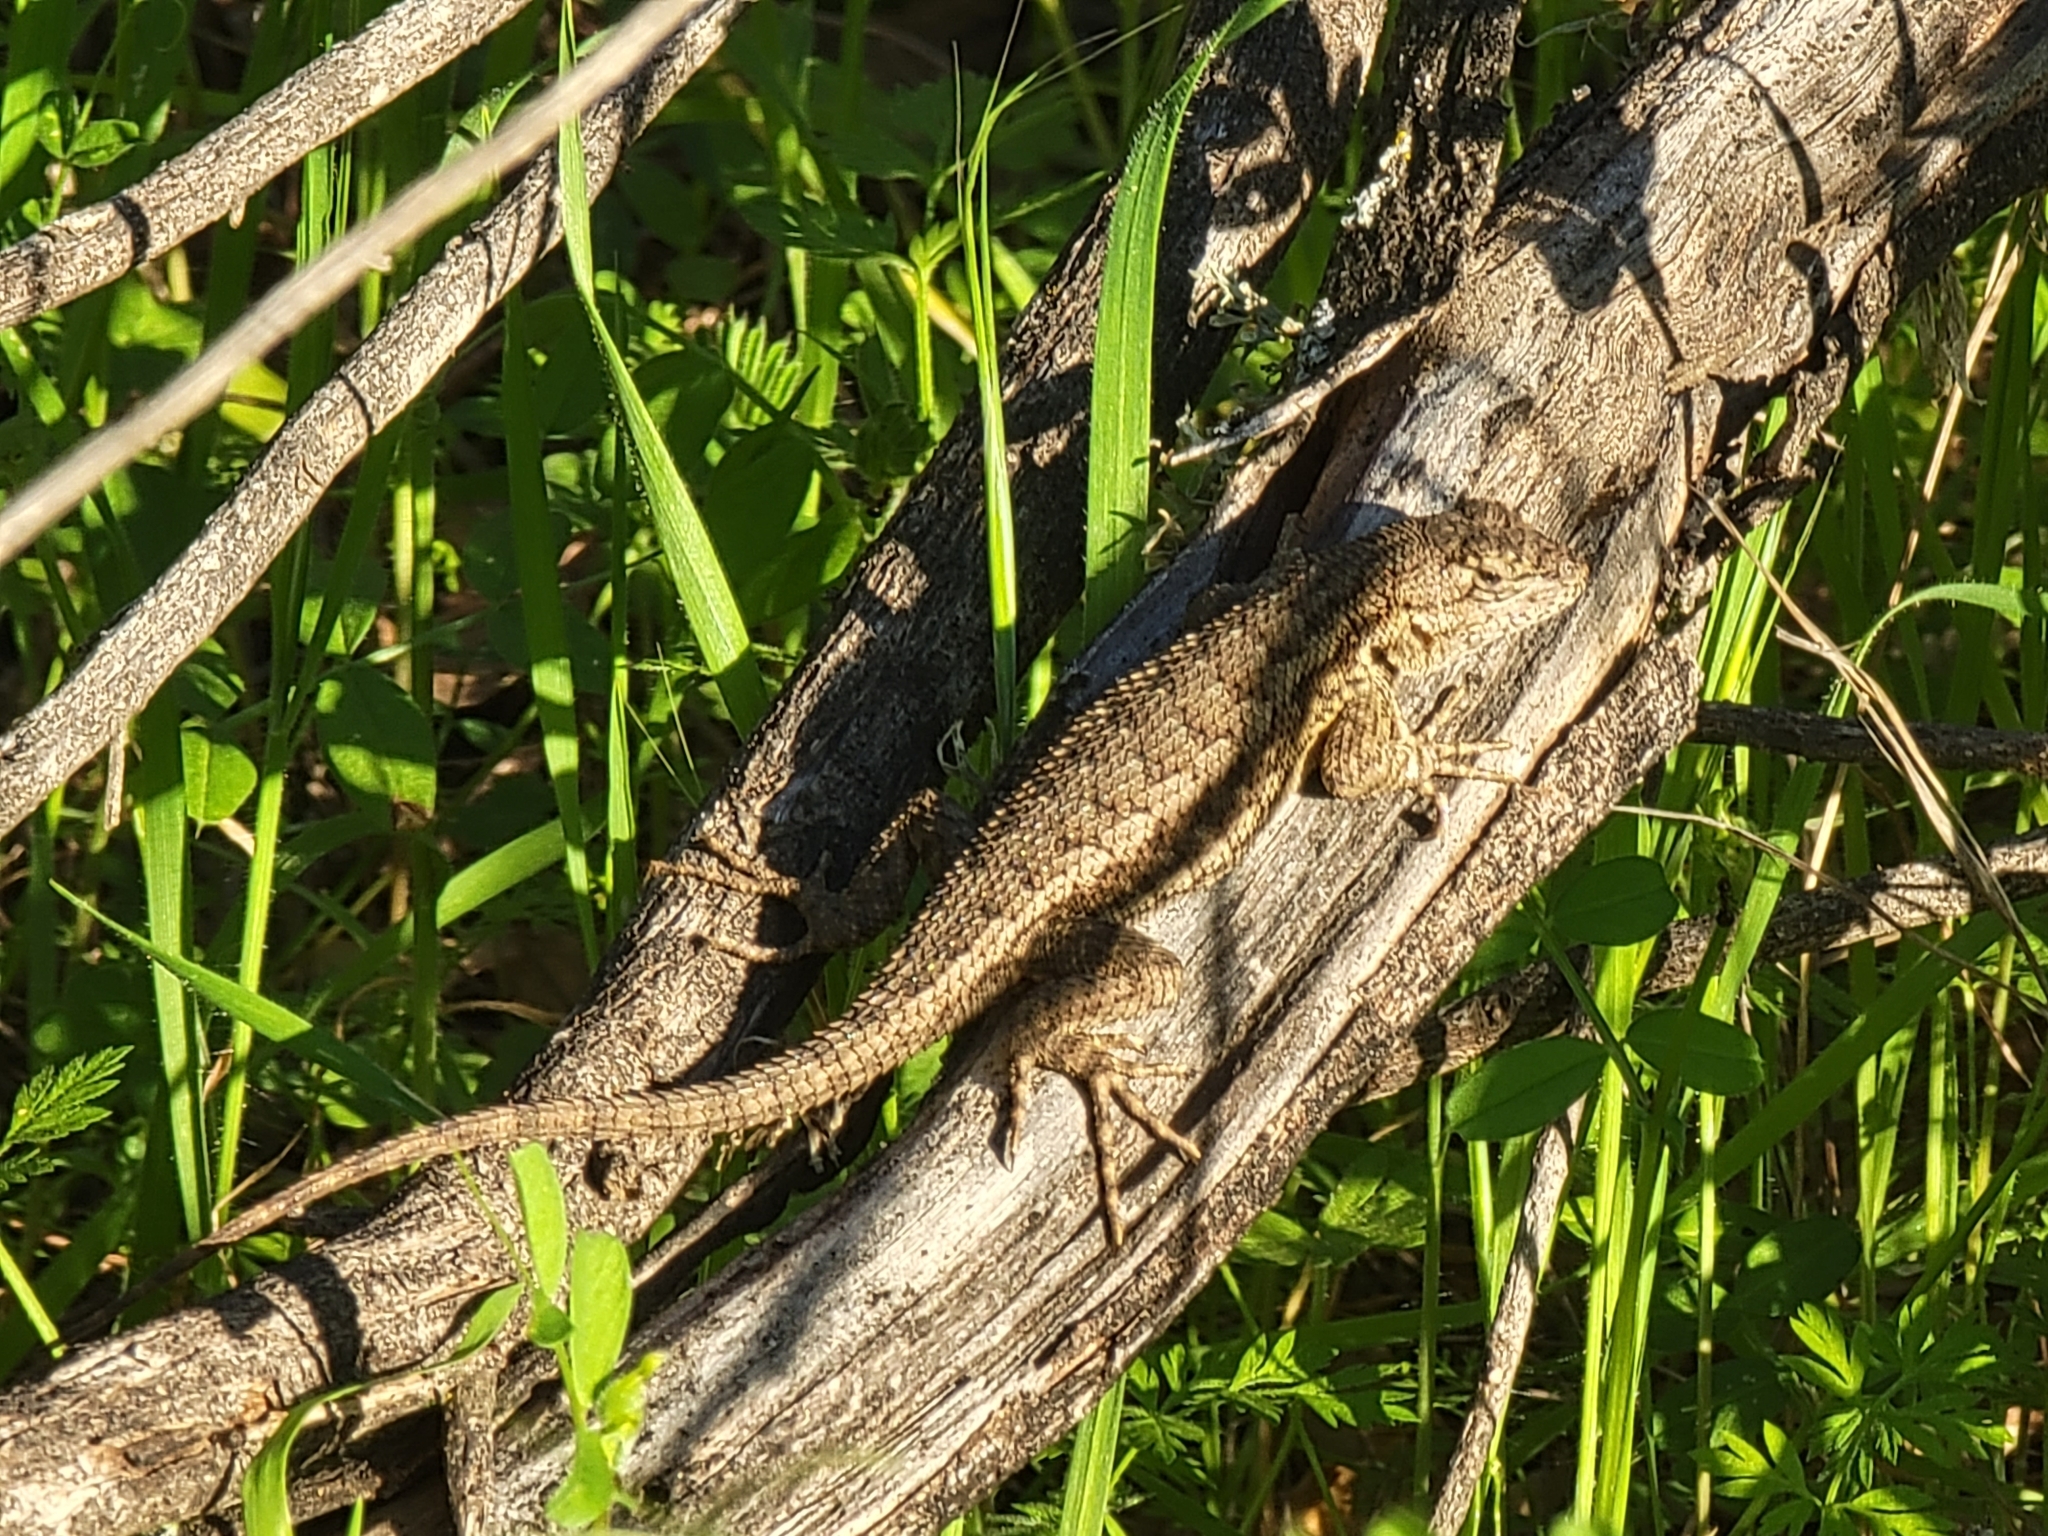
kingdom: Animalia
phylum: Chordata
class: Squamata
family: Phrynosomatidae
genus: Sceloporus
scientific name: Sceloporus occidentalis
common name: Western fence lizard
